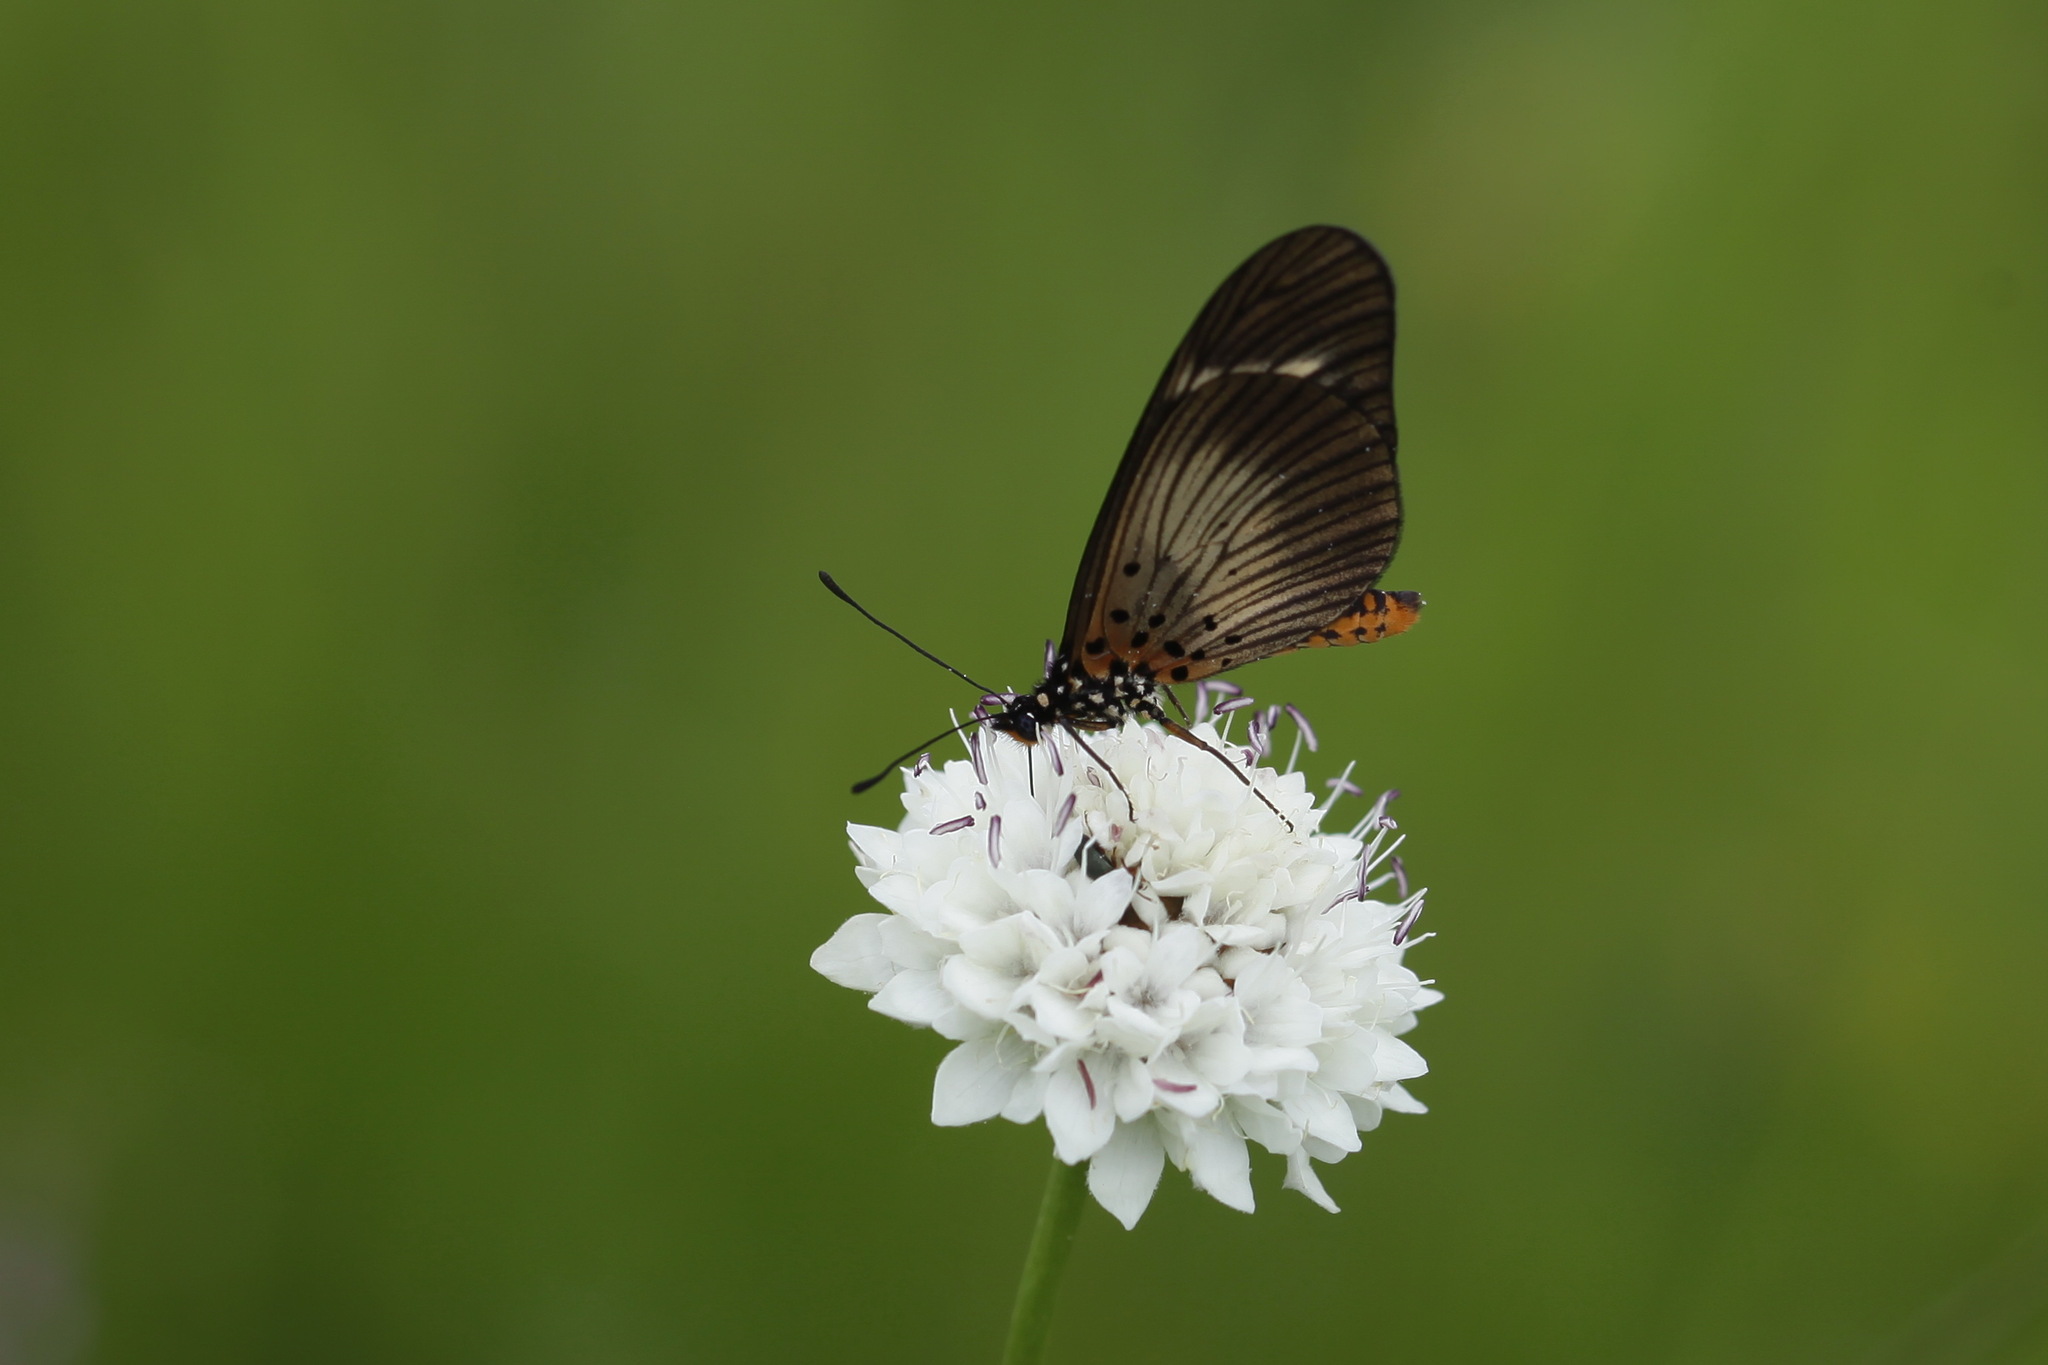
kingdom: Animalia
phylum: Arthropoda
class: Insecta
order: Lepidoptera
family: Nymphalidae
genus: Acraea
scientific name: Acraea esebria
